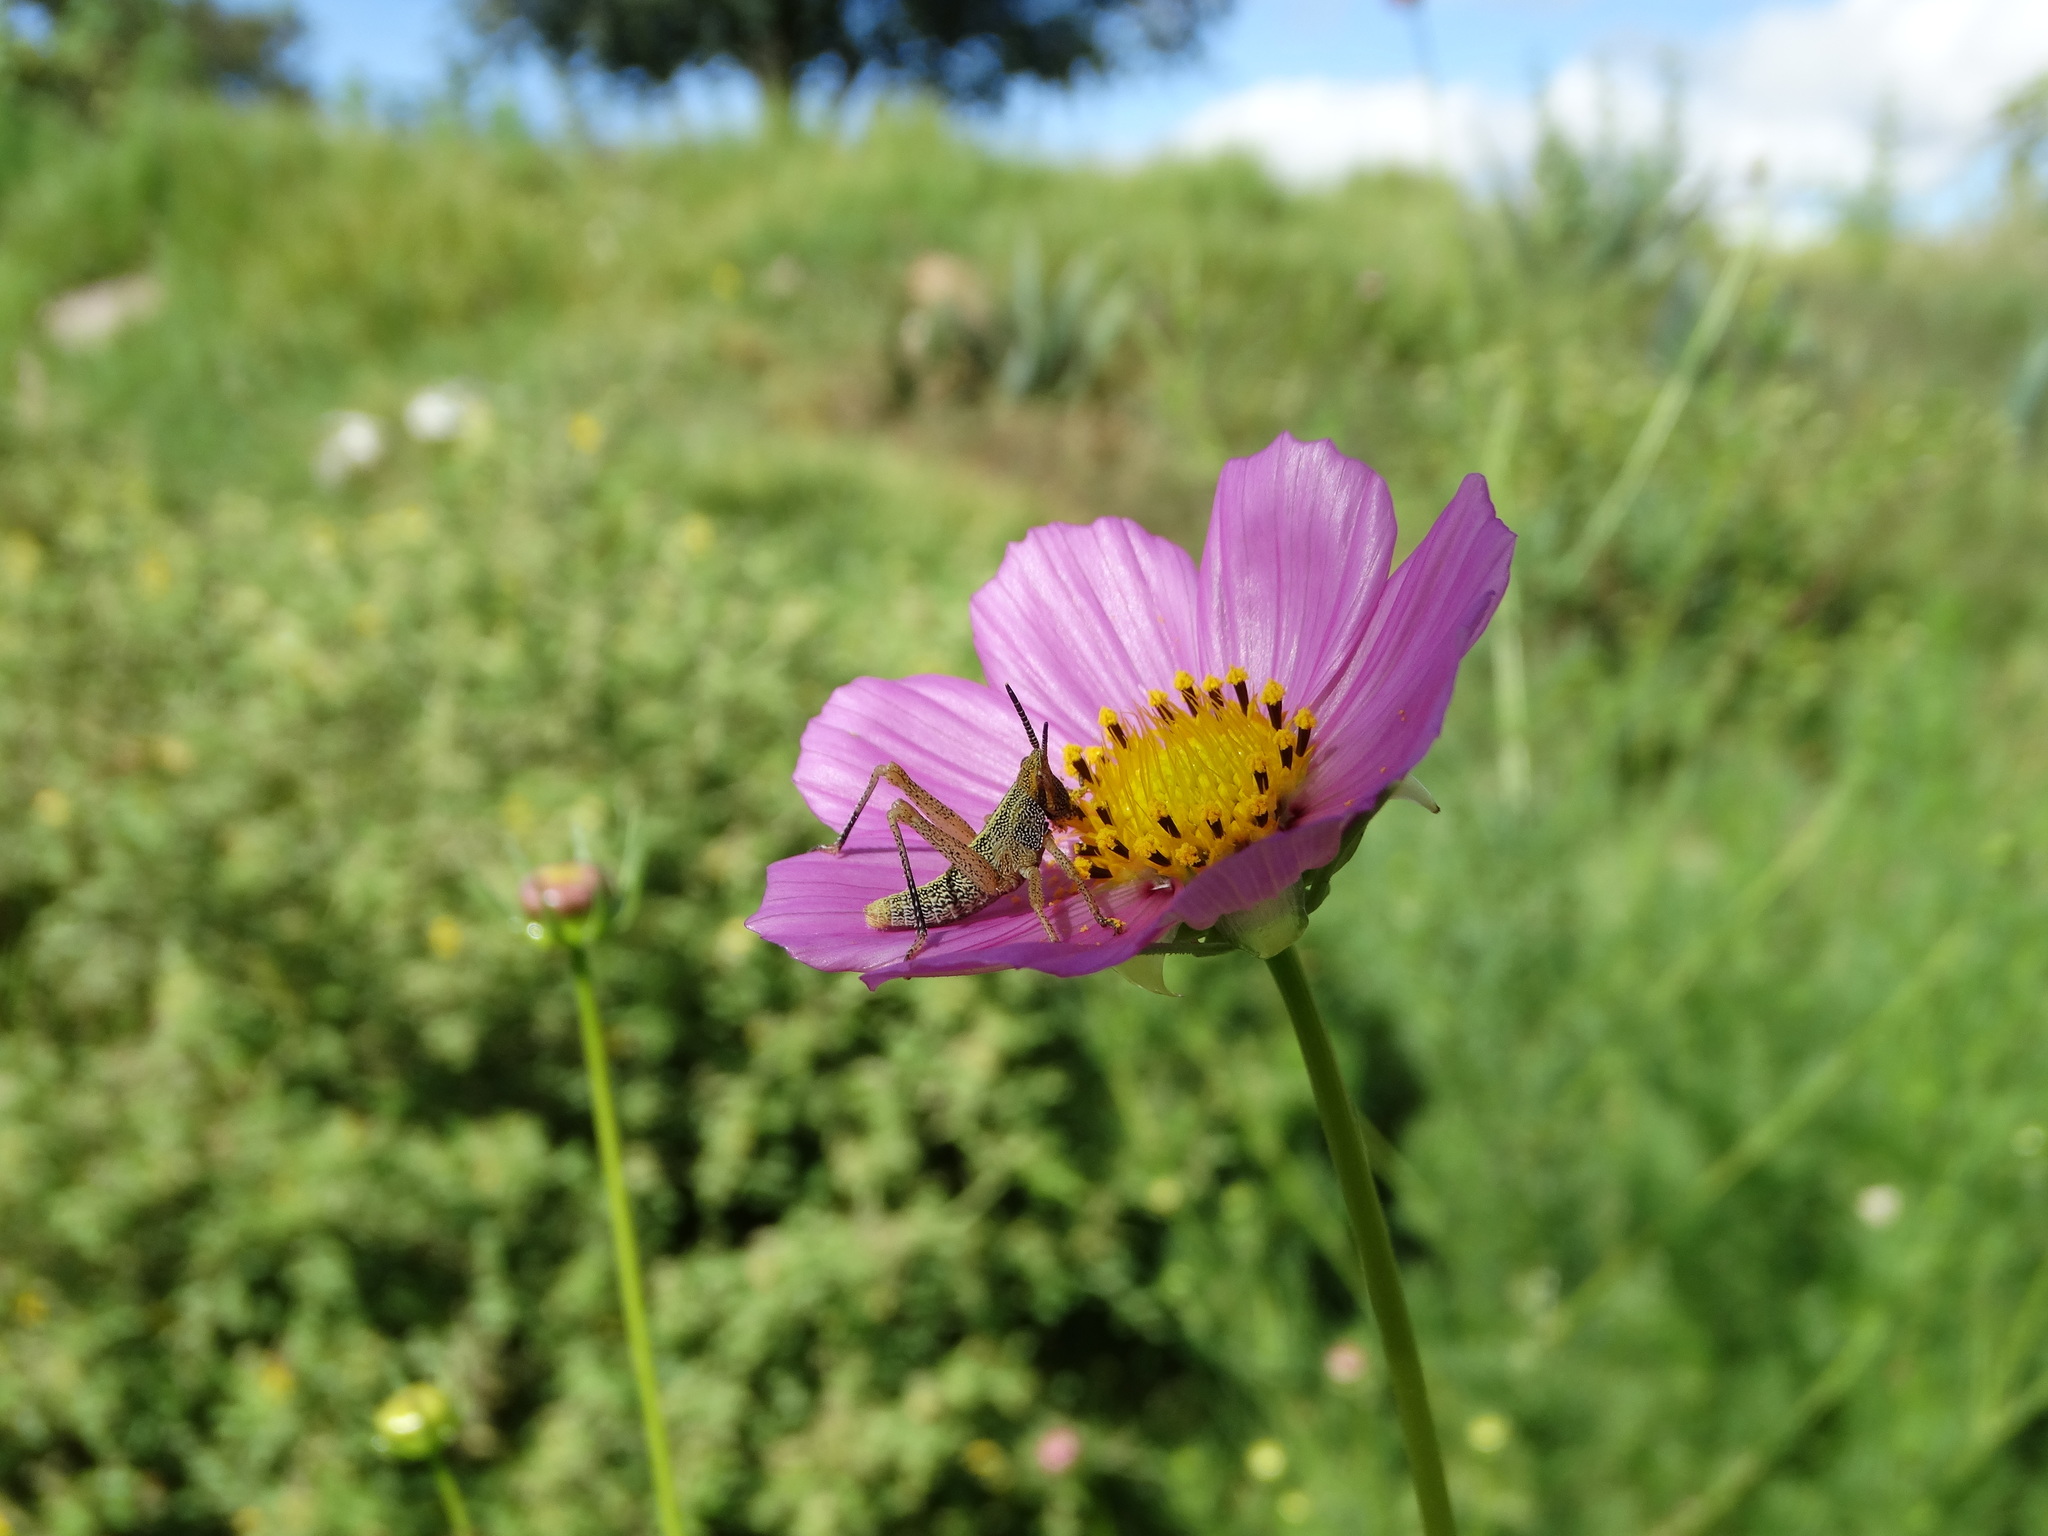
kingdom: Plantae
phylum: Tracheophyta
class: Magnoliopsida
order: Asterales
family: Asteraceae
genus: Cosmos
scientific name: Cosmos bipinnatus
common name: Garden cosmos
